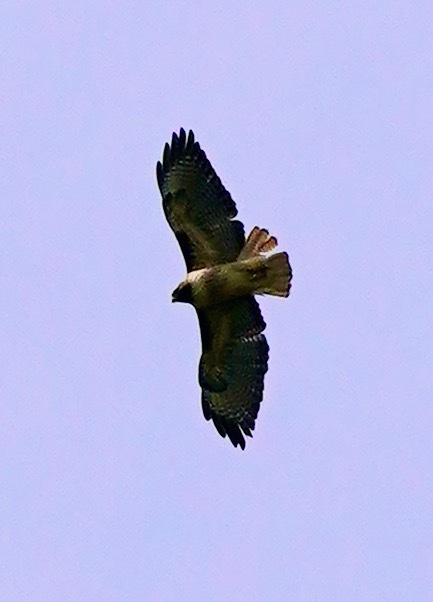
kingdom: Animalia
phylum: Chordata
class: Aves
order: Accipitriformes
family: Accipitridae
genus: Buteo
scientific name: Buteo jamaicensis
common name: Red-tailed hawk
